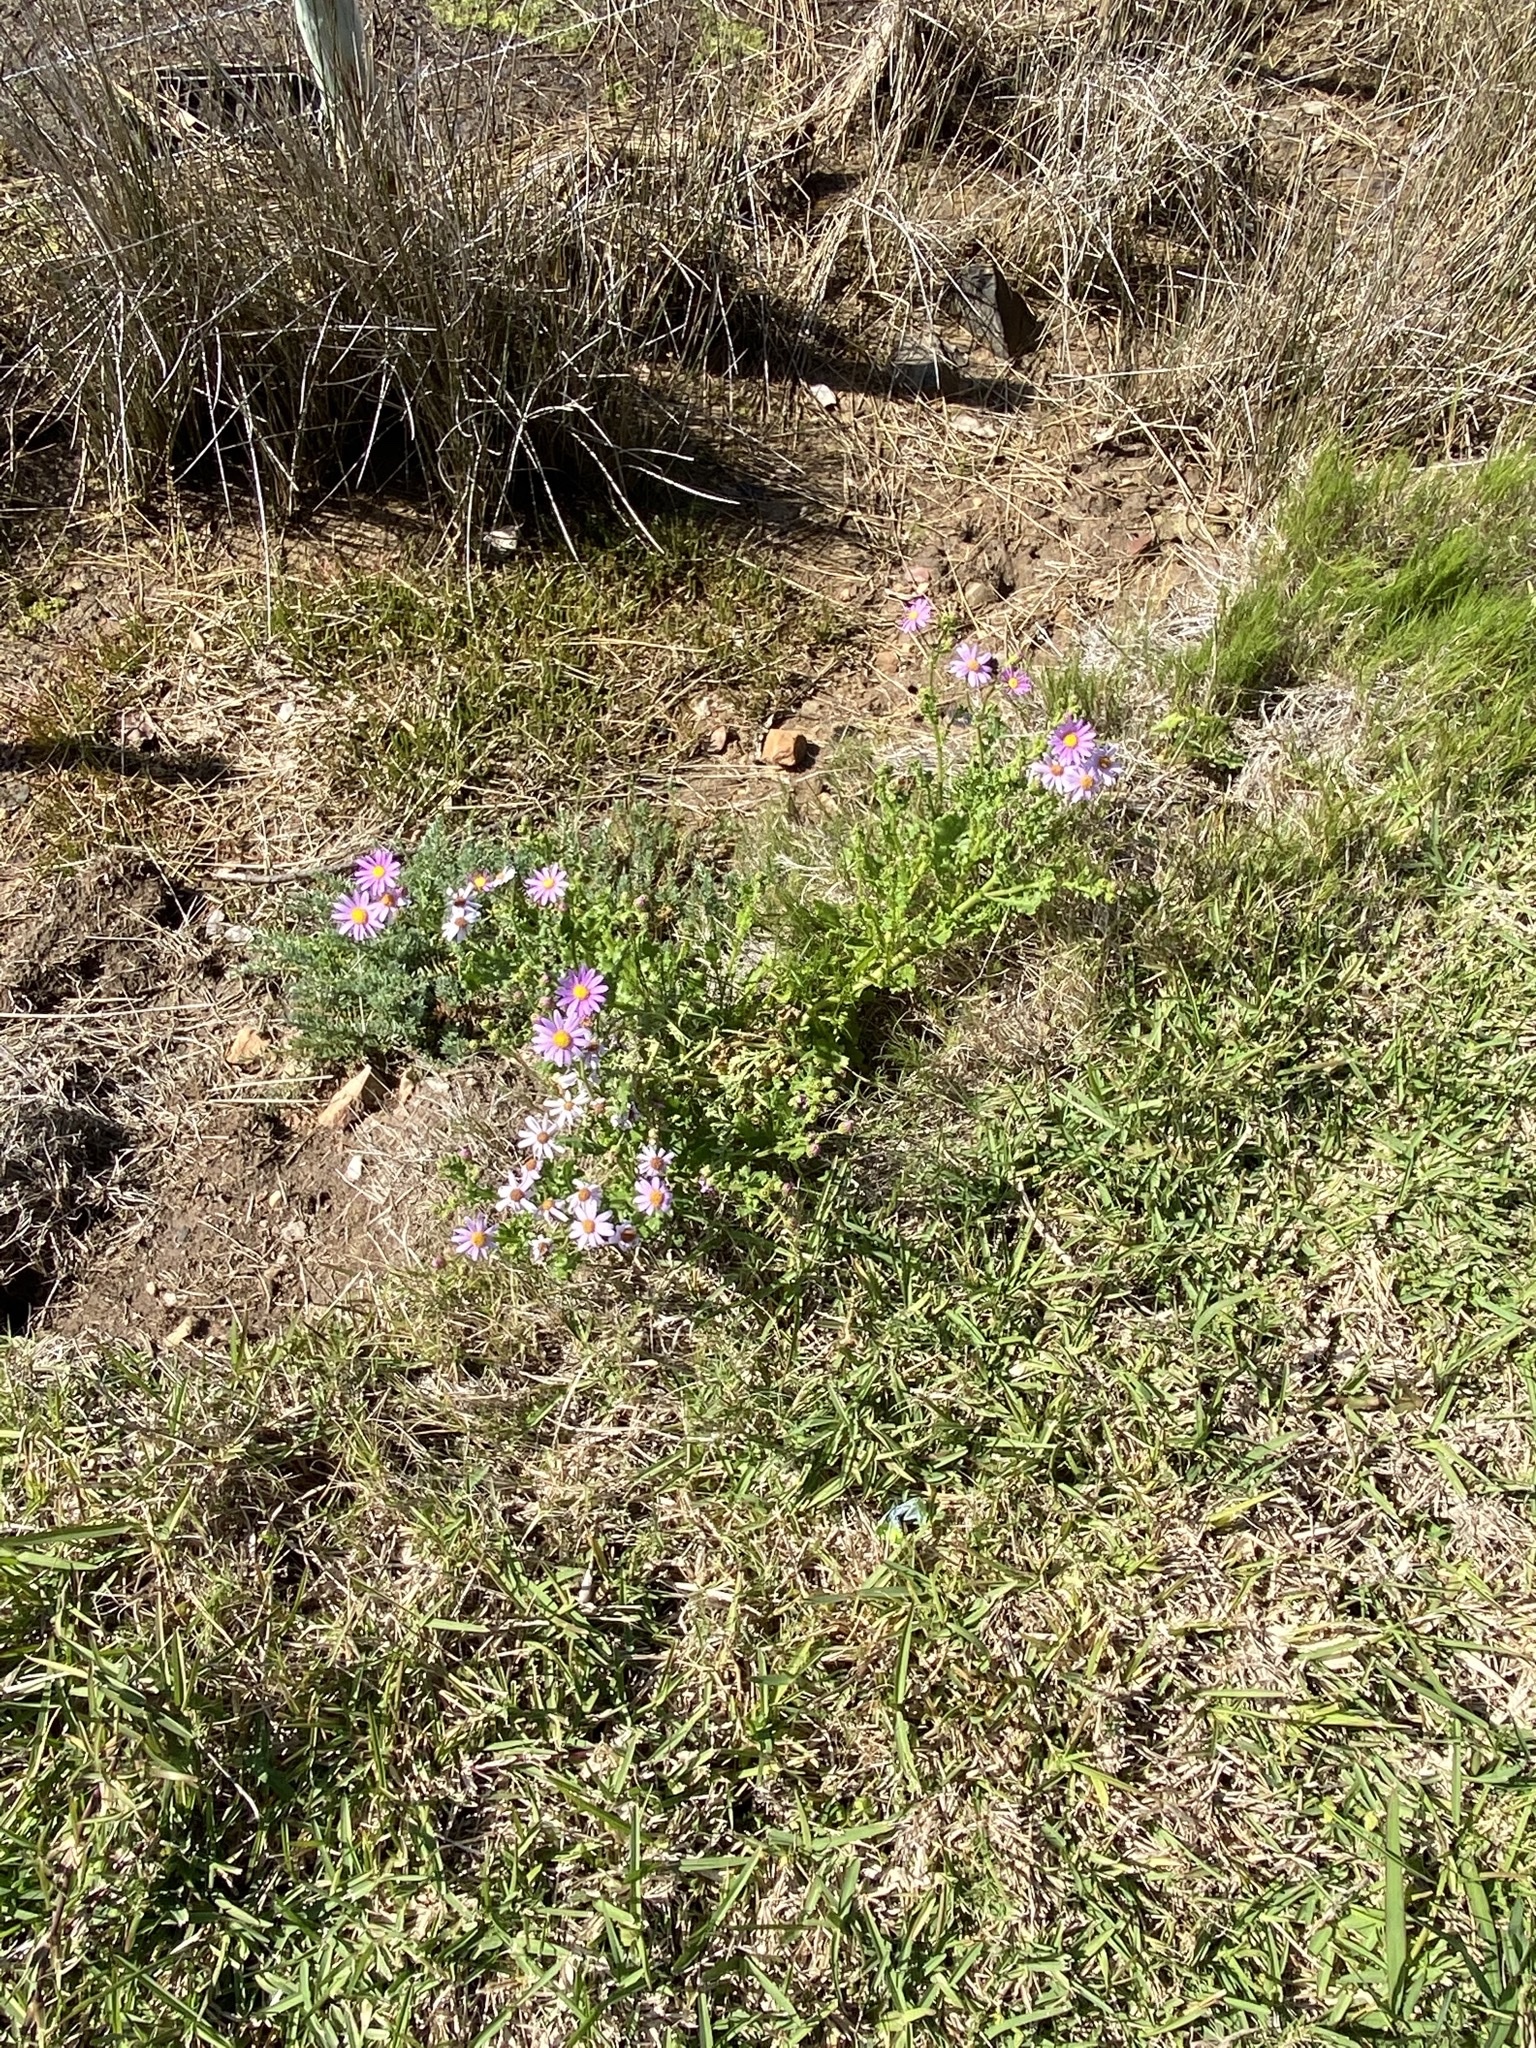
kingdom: Plantae
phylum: Tracheophyta
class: Magnoliopsida
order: Asterales
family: Asteraceae
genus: Senecio
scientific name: Senecio elegans
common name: Purple groundsel
